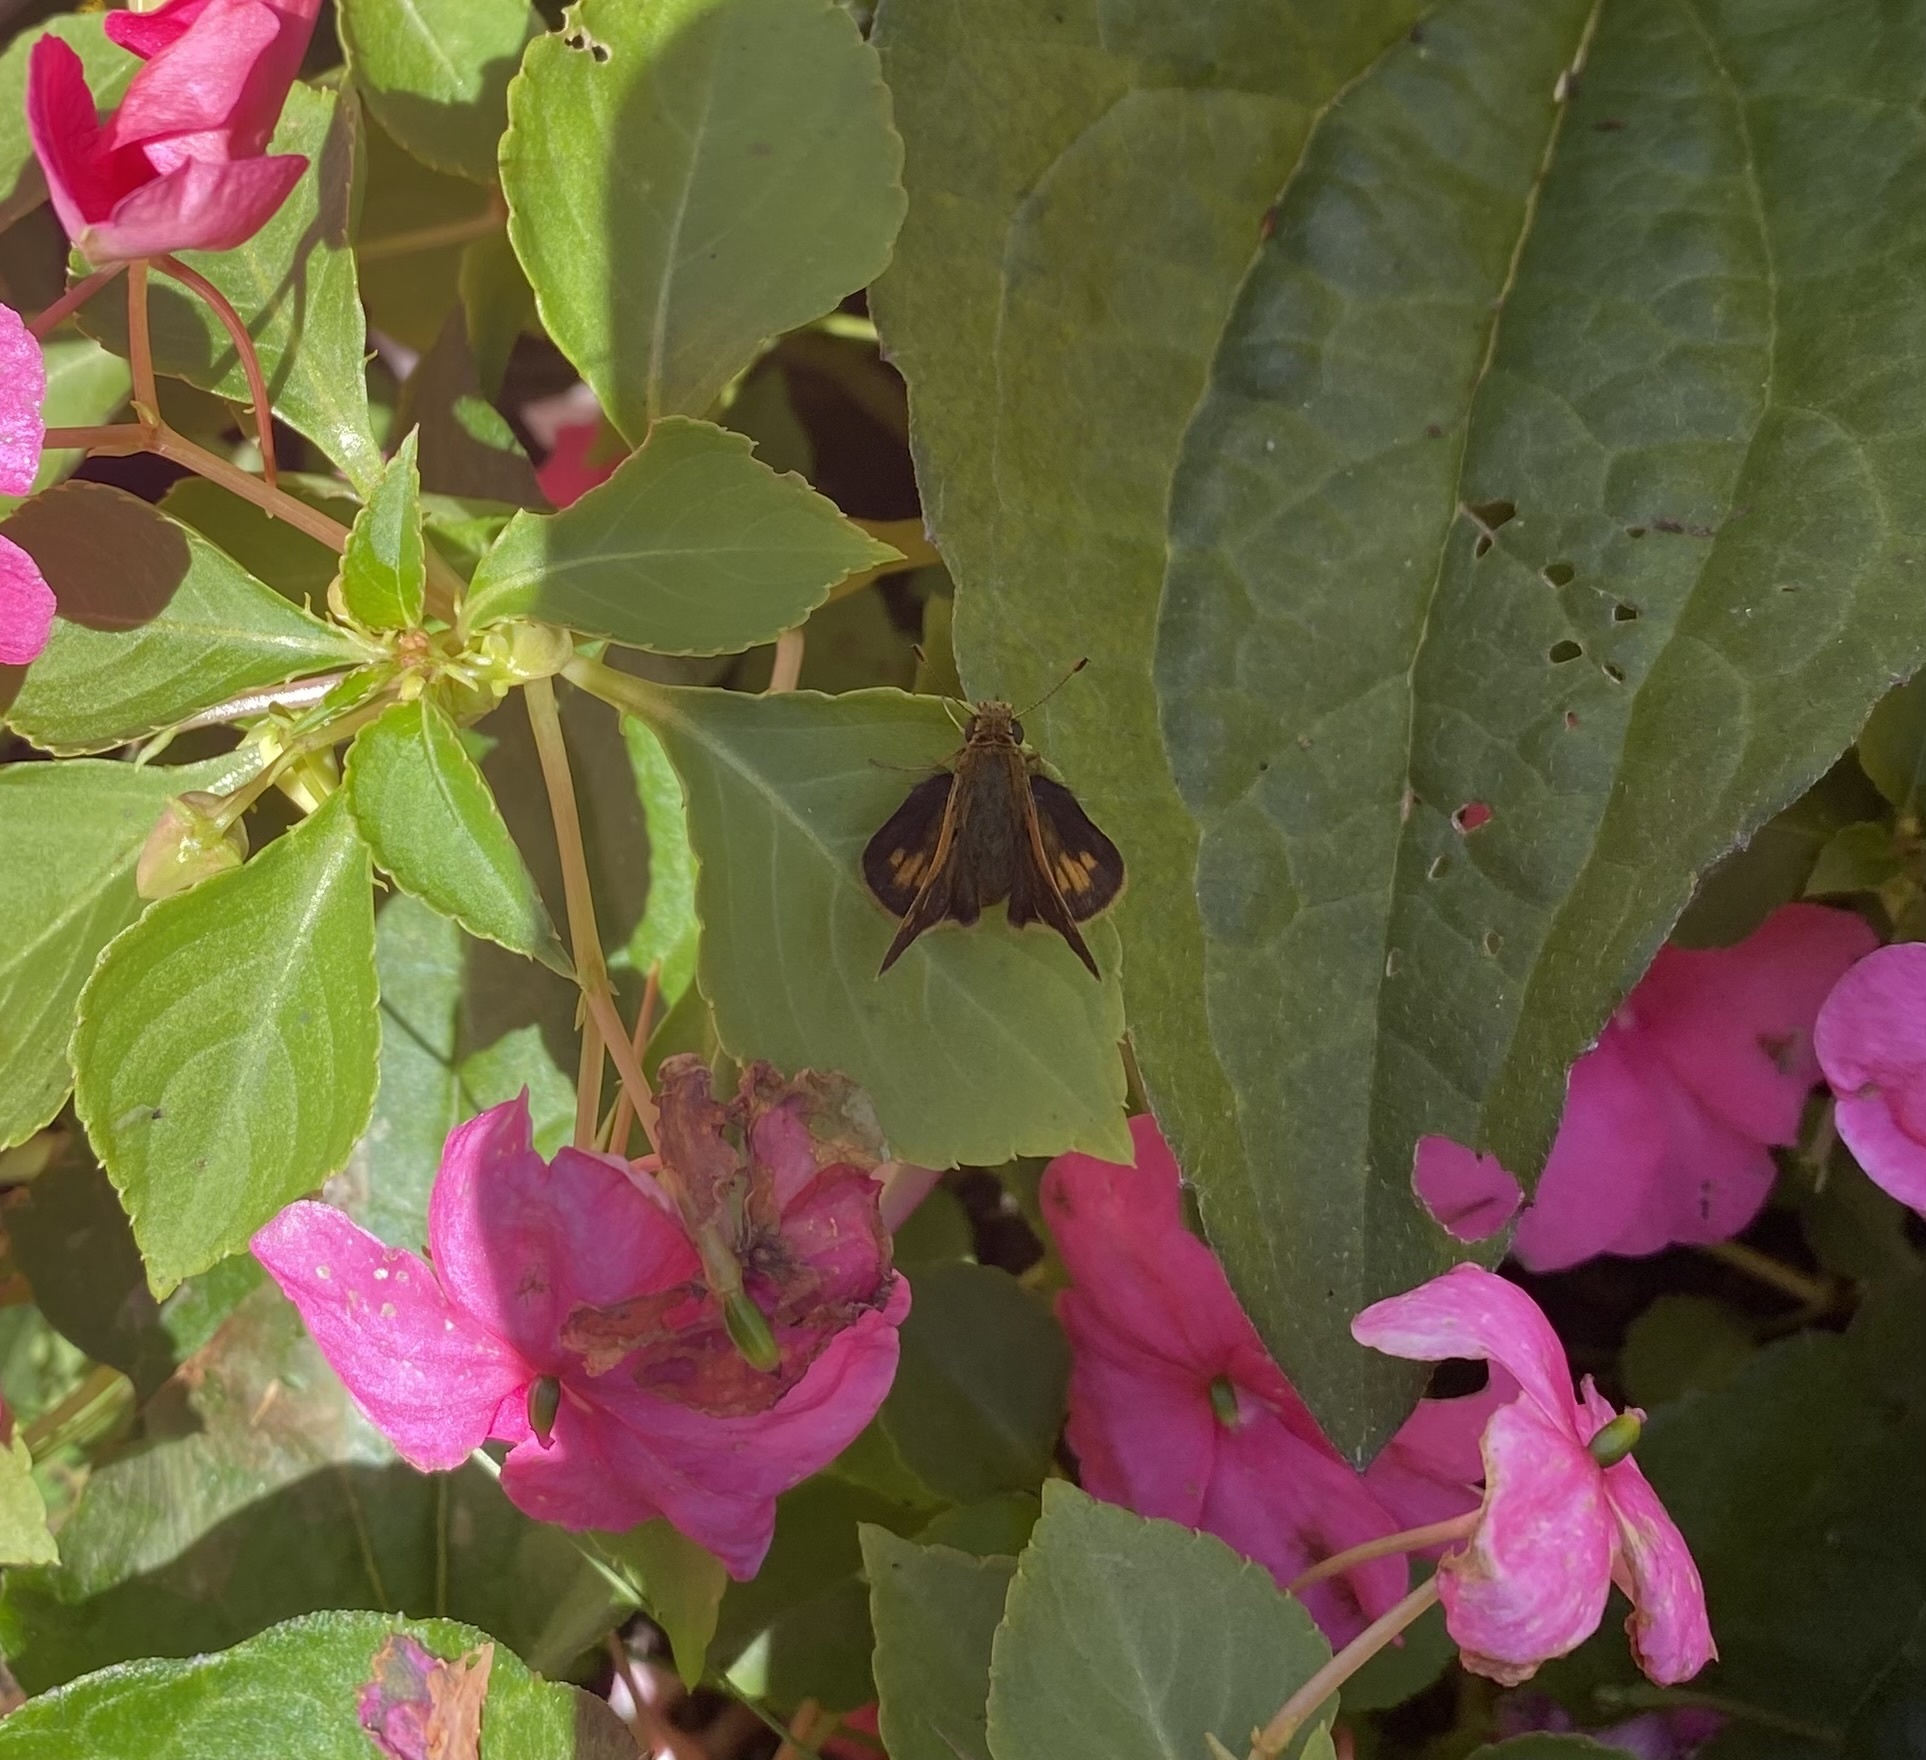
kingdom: Animalia
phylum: Arthropoda
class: Insecta
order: Lepidoptera
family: Hesperiidae
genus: Polites
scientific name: Polites coras
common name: Peck's skipper
